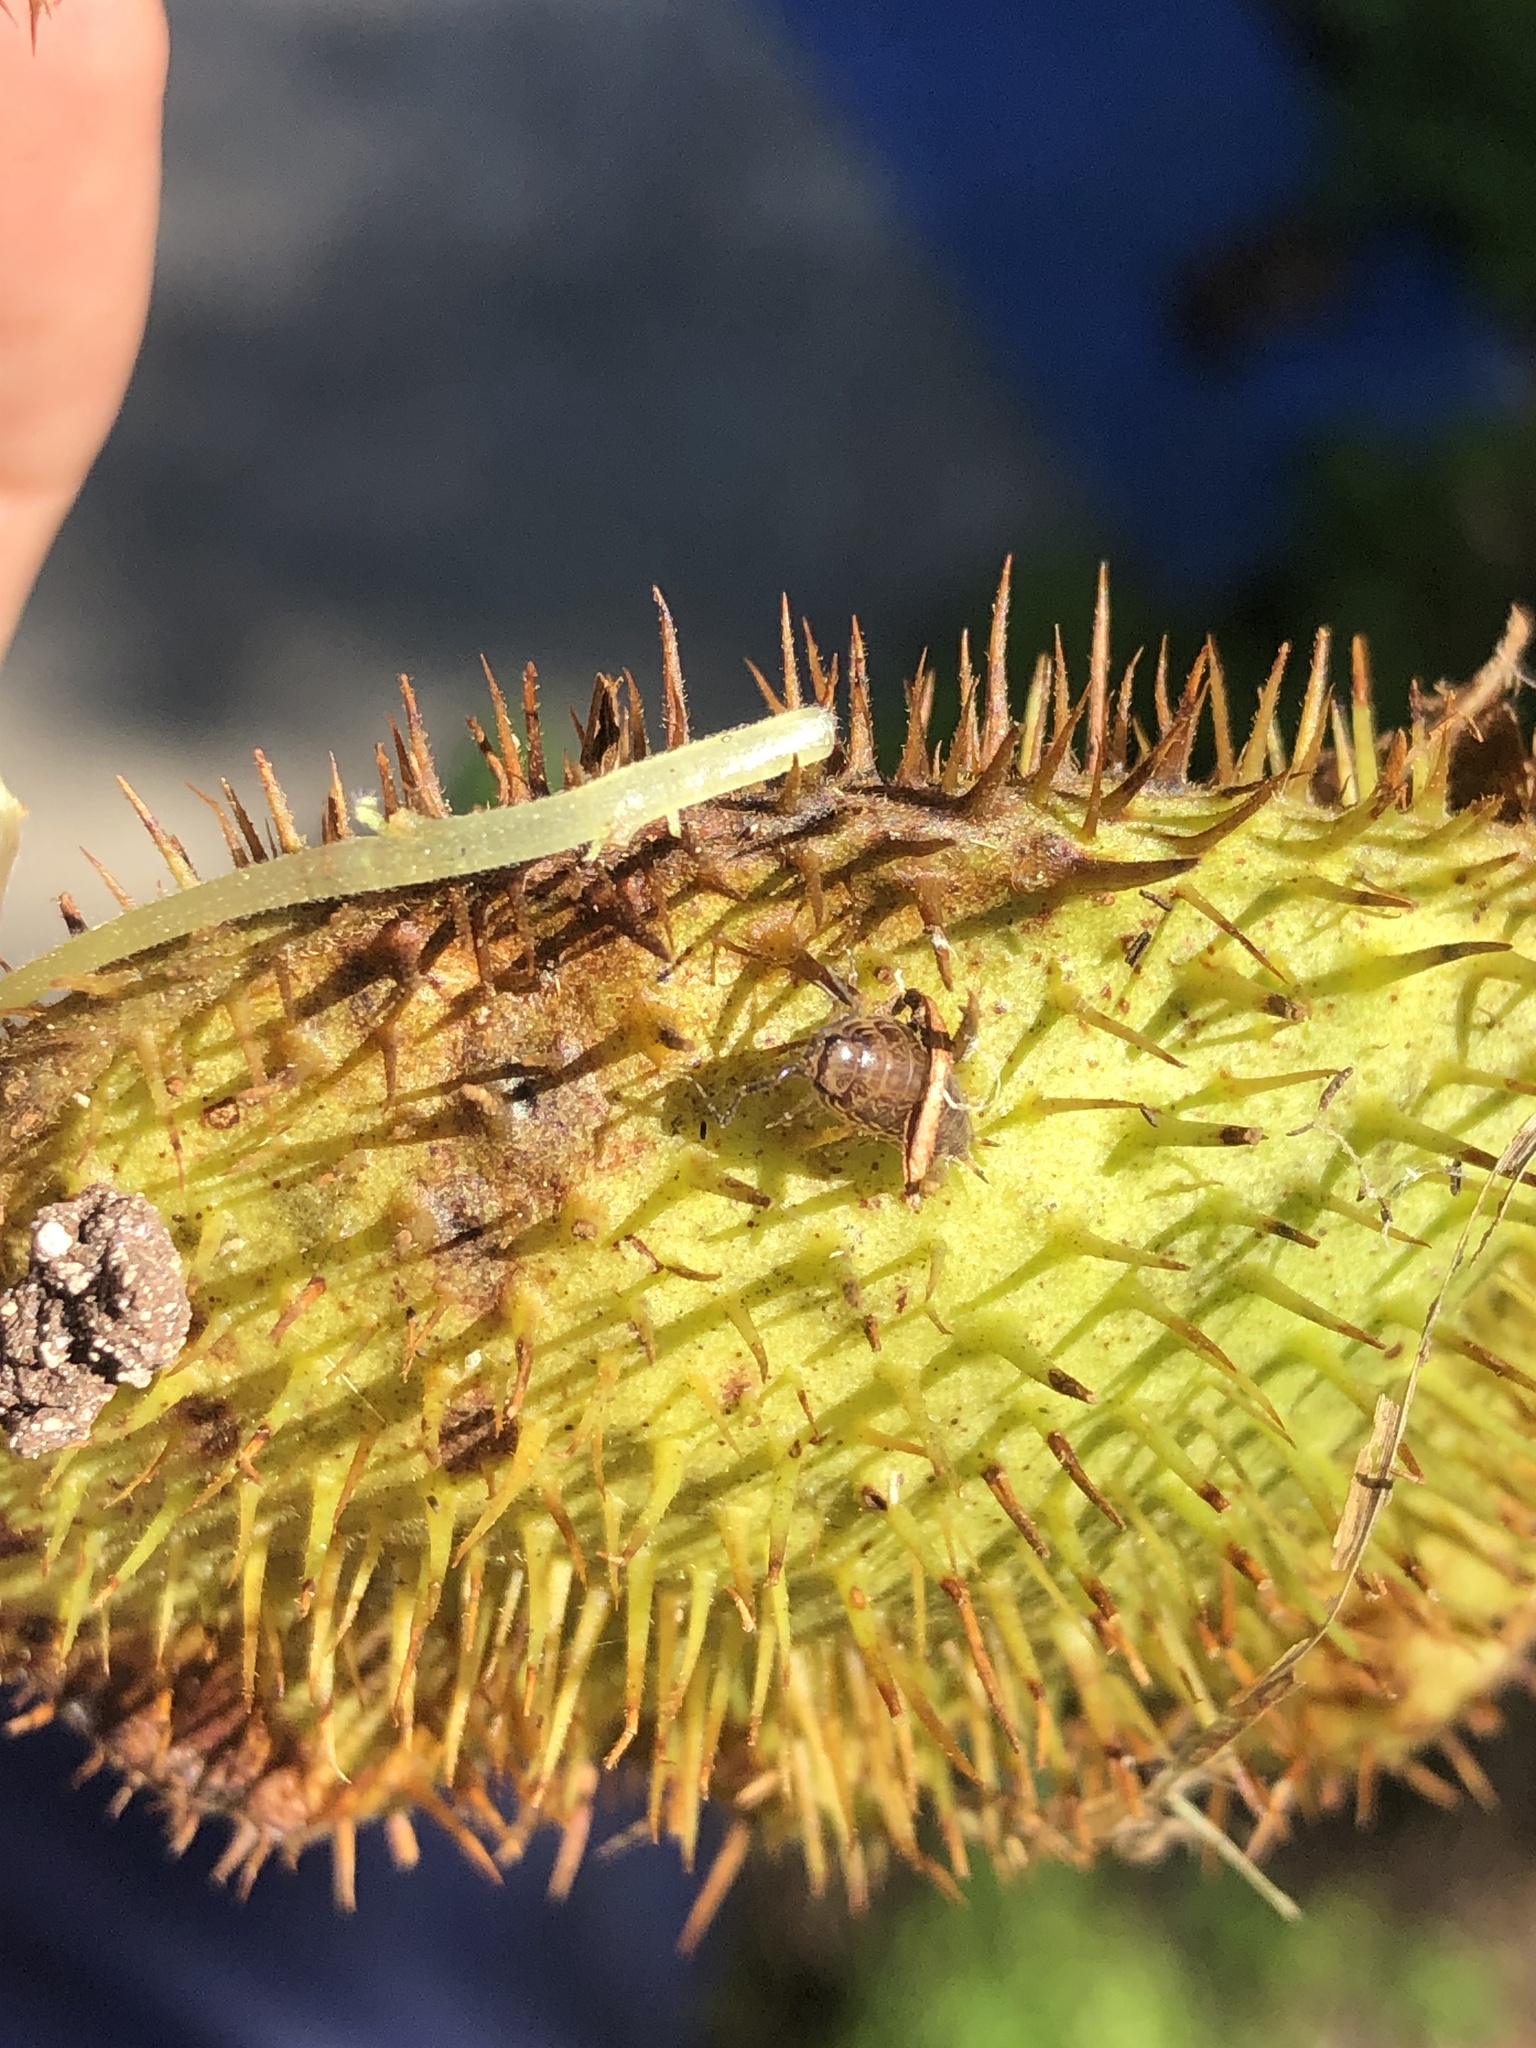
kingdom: Animalia
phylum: Arthropoda
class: Malacostraca
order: Isopoda
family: Philosciidae
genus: Atlantoscia
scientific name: Atlantoscia floridana
